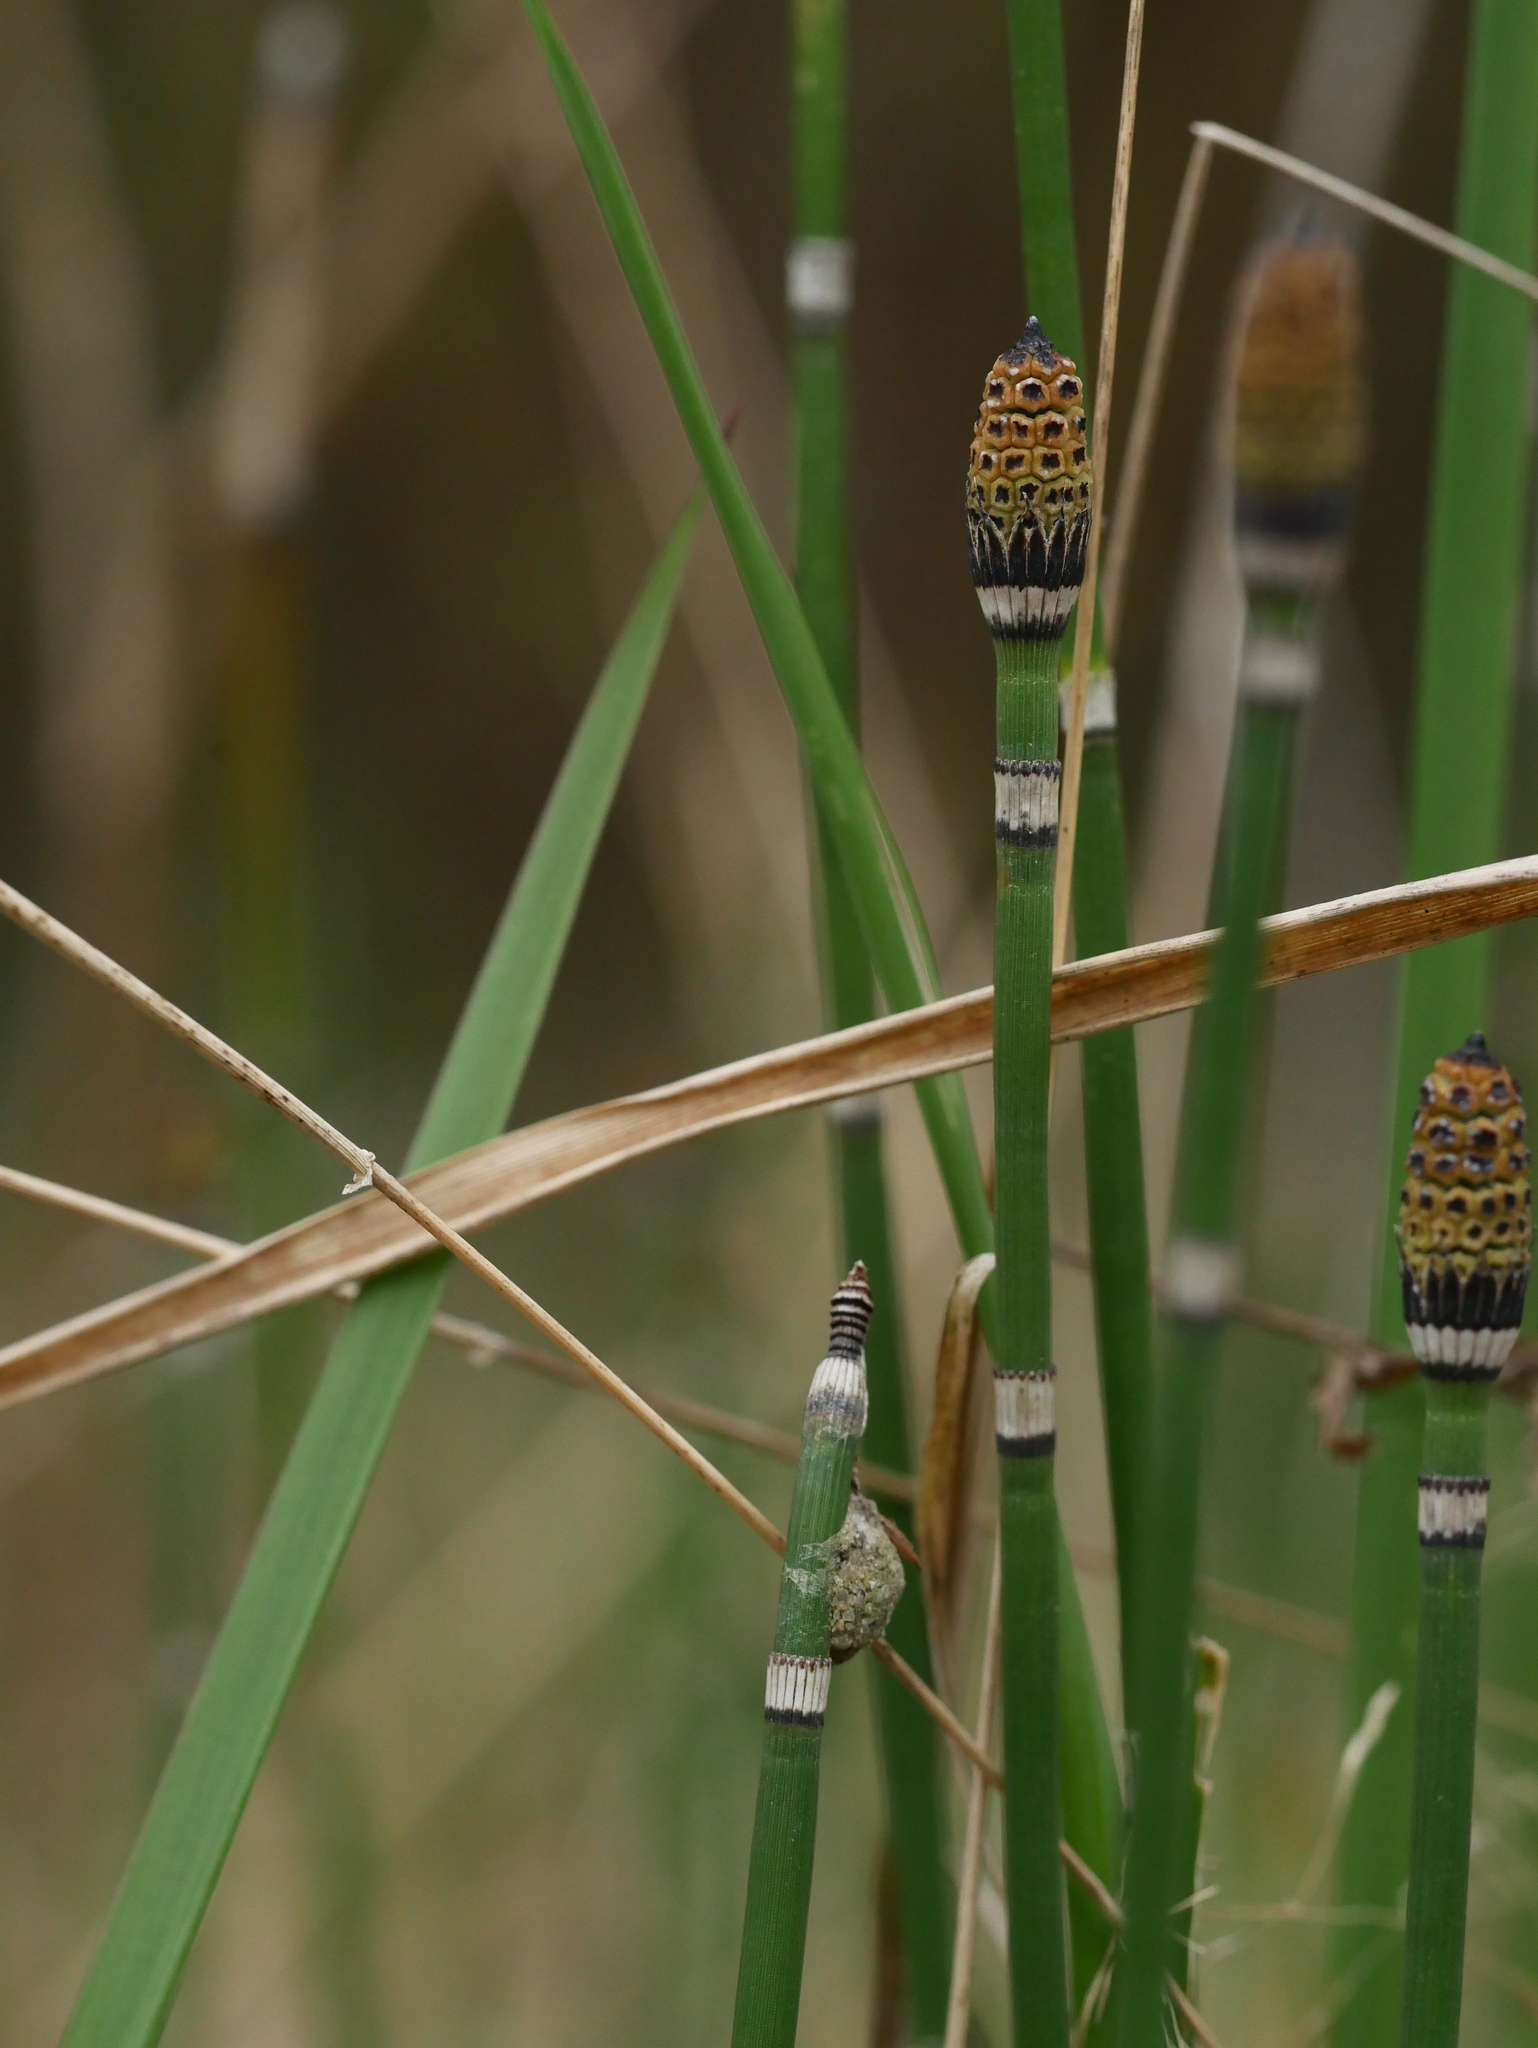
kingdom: Plantae
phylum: Tracheophyta
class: Polypodiopsida
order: Equisetales
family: Equisetaceae
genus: Equisetum
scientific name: Equisetum hyemale
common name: Rough horsetail
